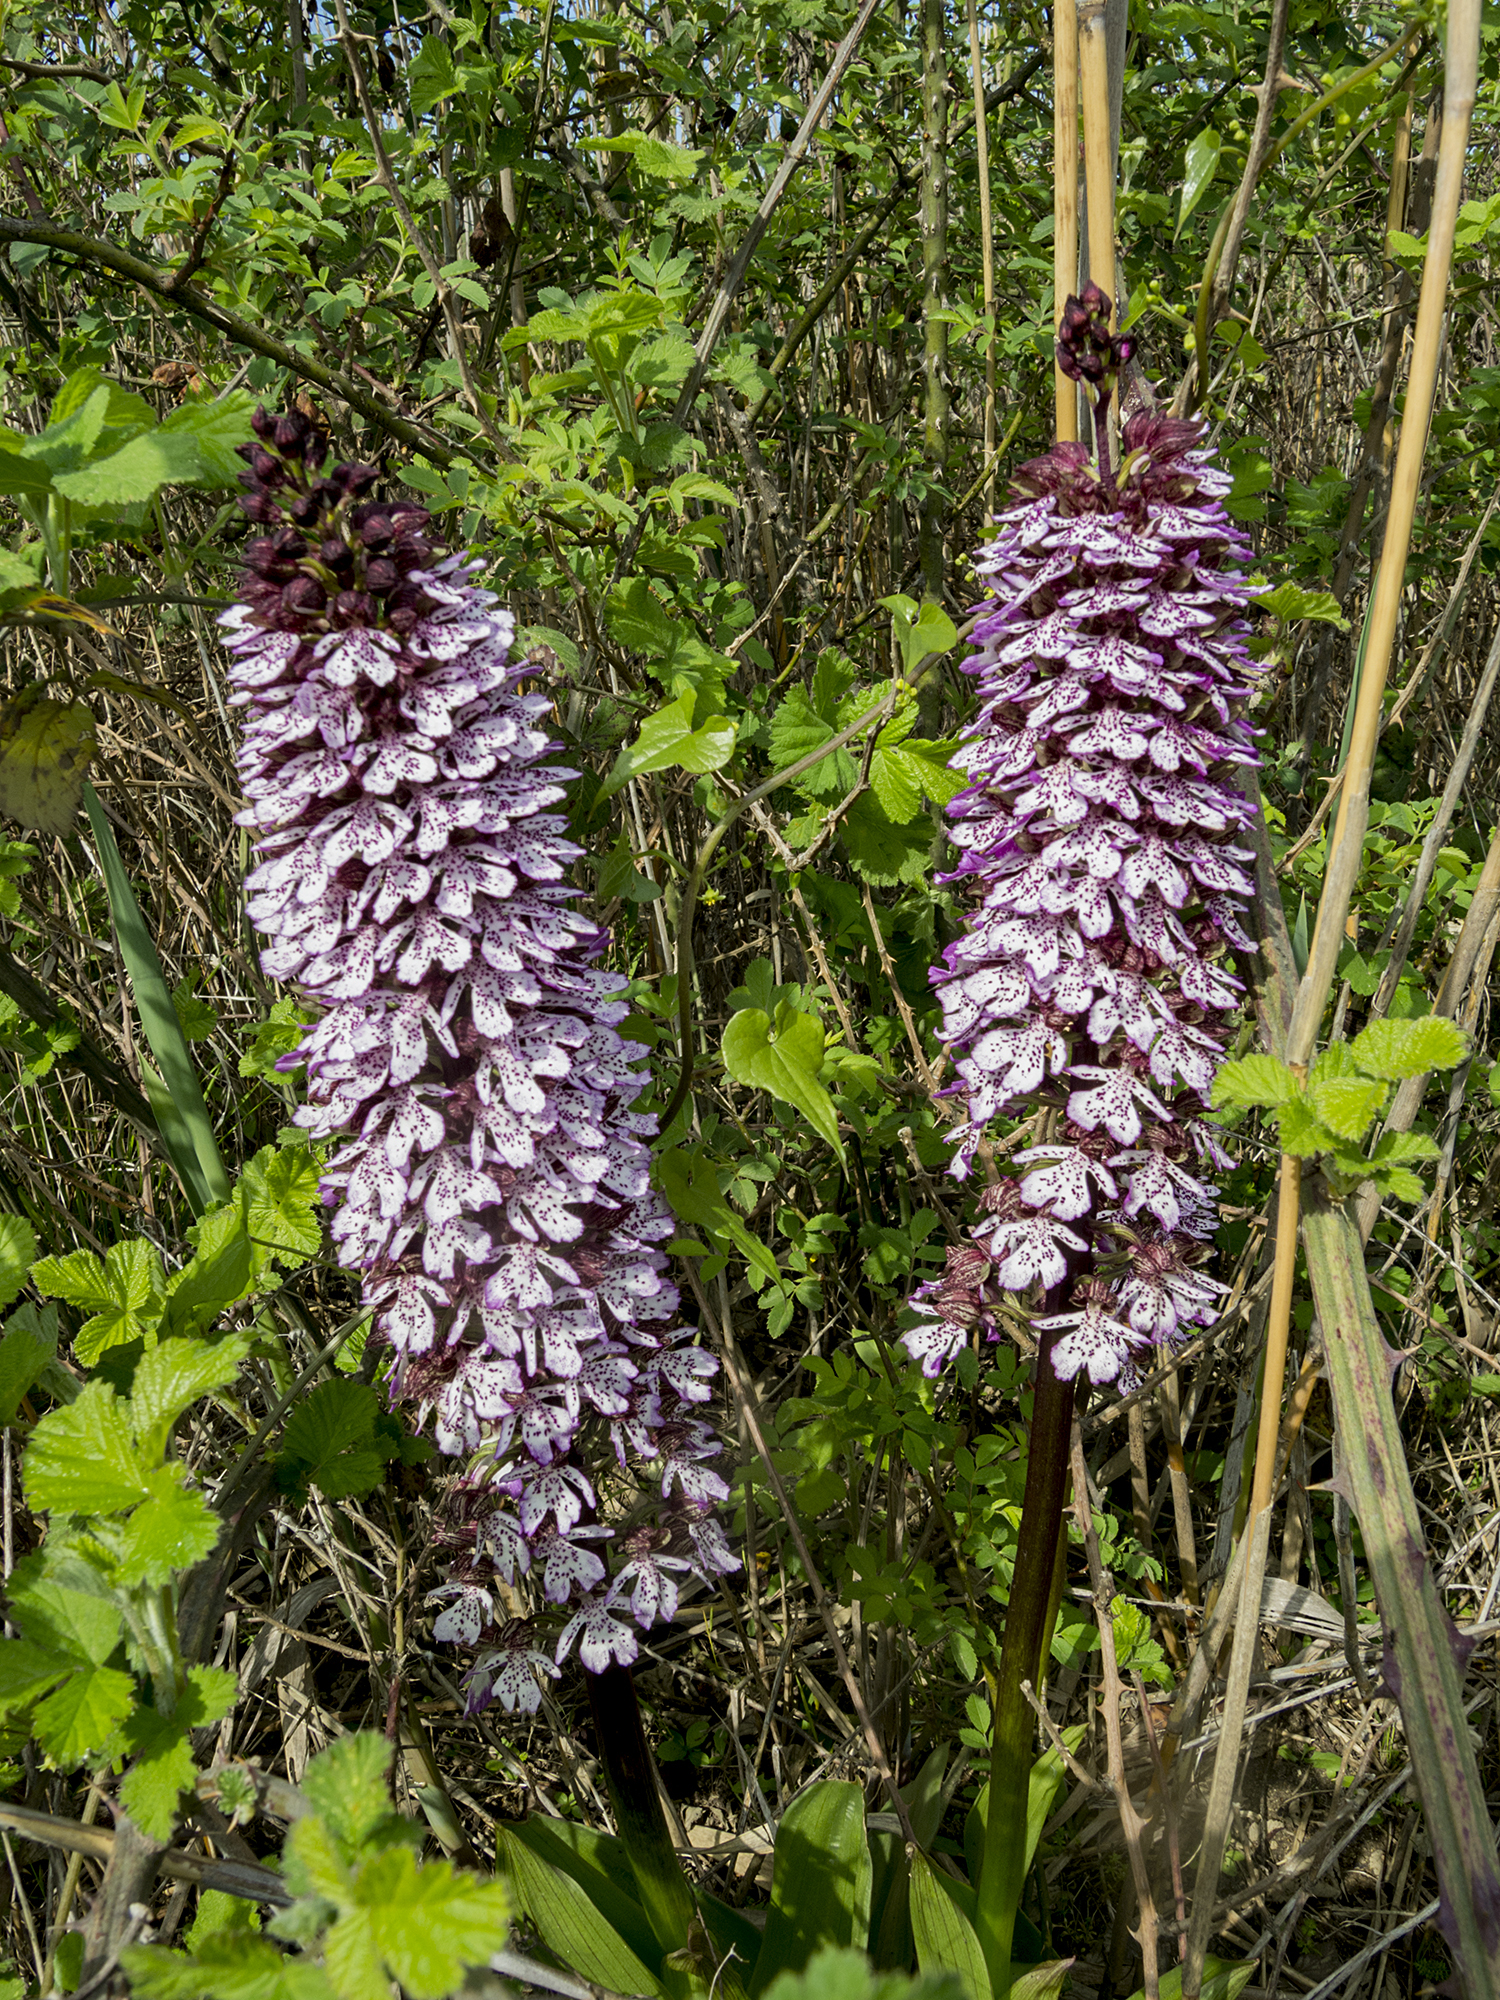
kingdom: Plantae
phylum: Tracheophyta
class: Liliopsida
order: Asparagales
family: Orchidaceae
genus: Orchis
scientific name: Orchis purpurea
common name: Lady orchid
